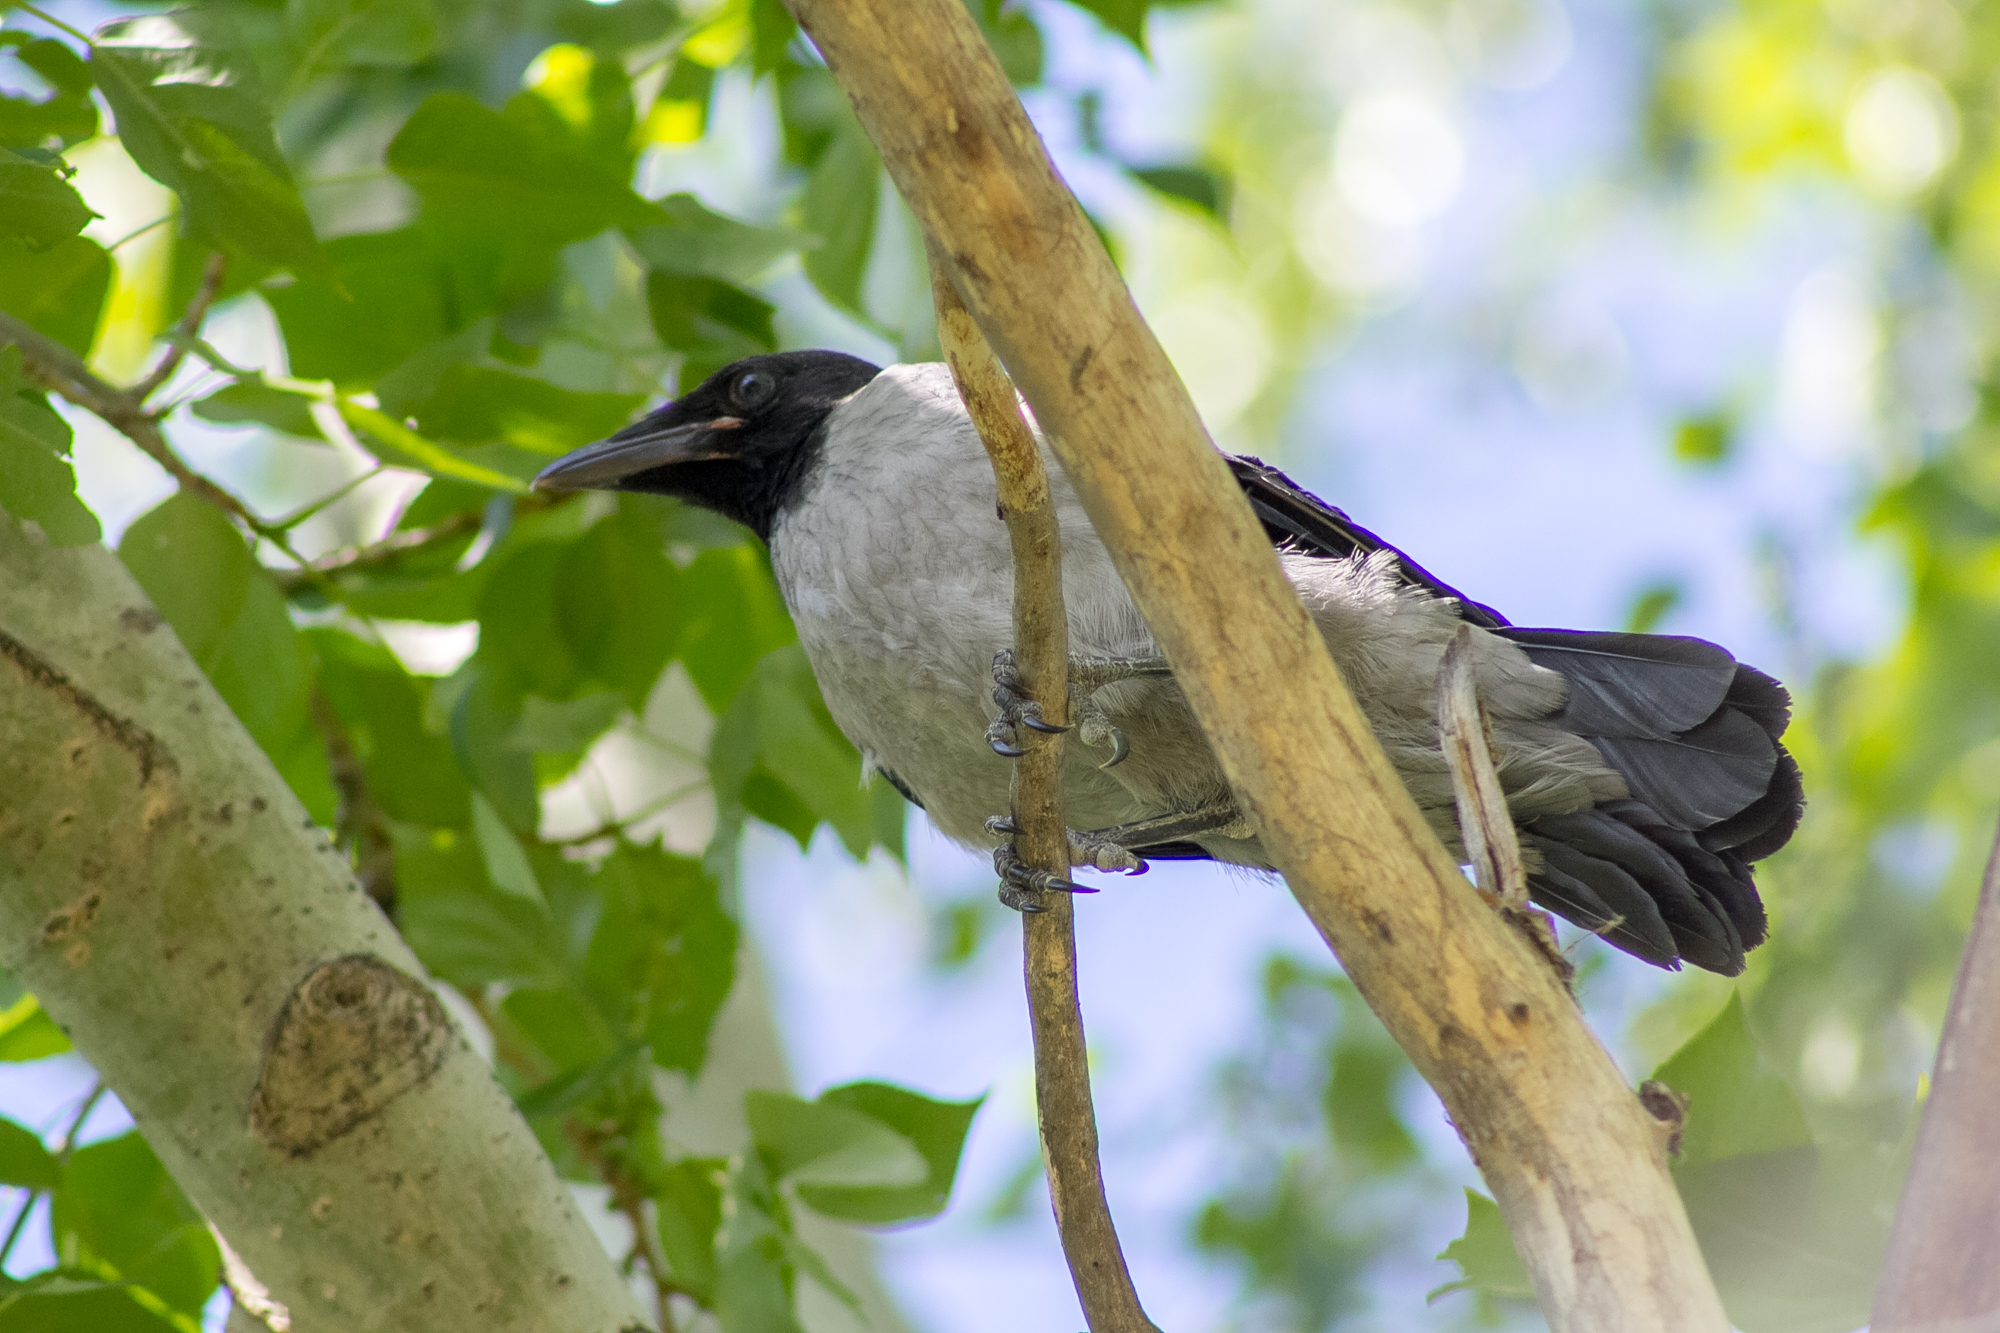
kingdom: Animalia
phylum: Chordata
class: Aves
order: Passeriformes
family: Corvidae
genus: Corvus
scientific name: Corvus cornix
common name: Hooded crow
